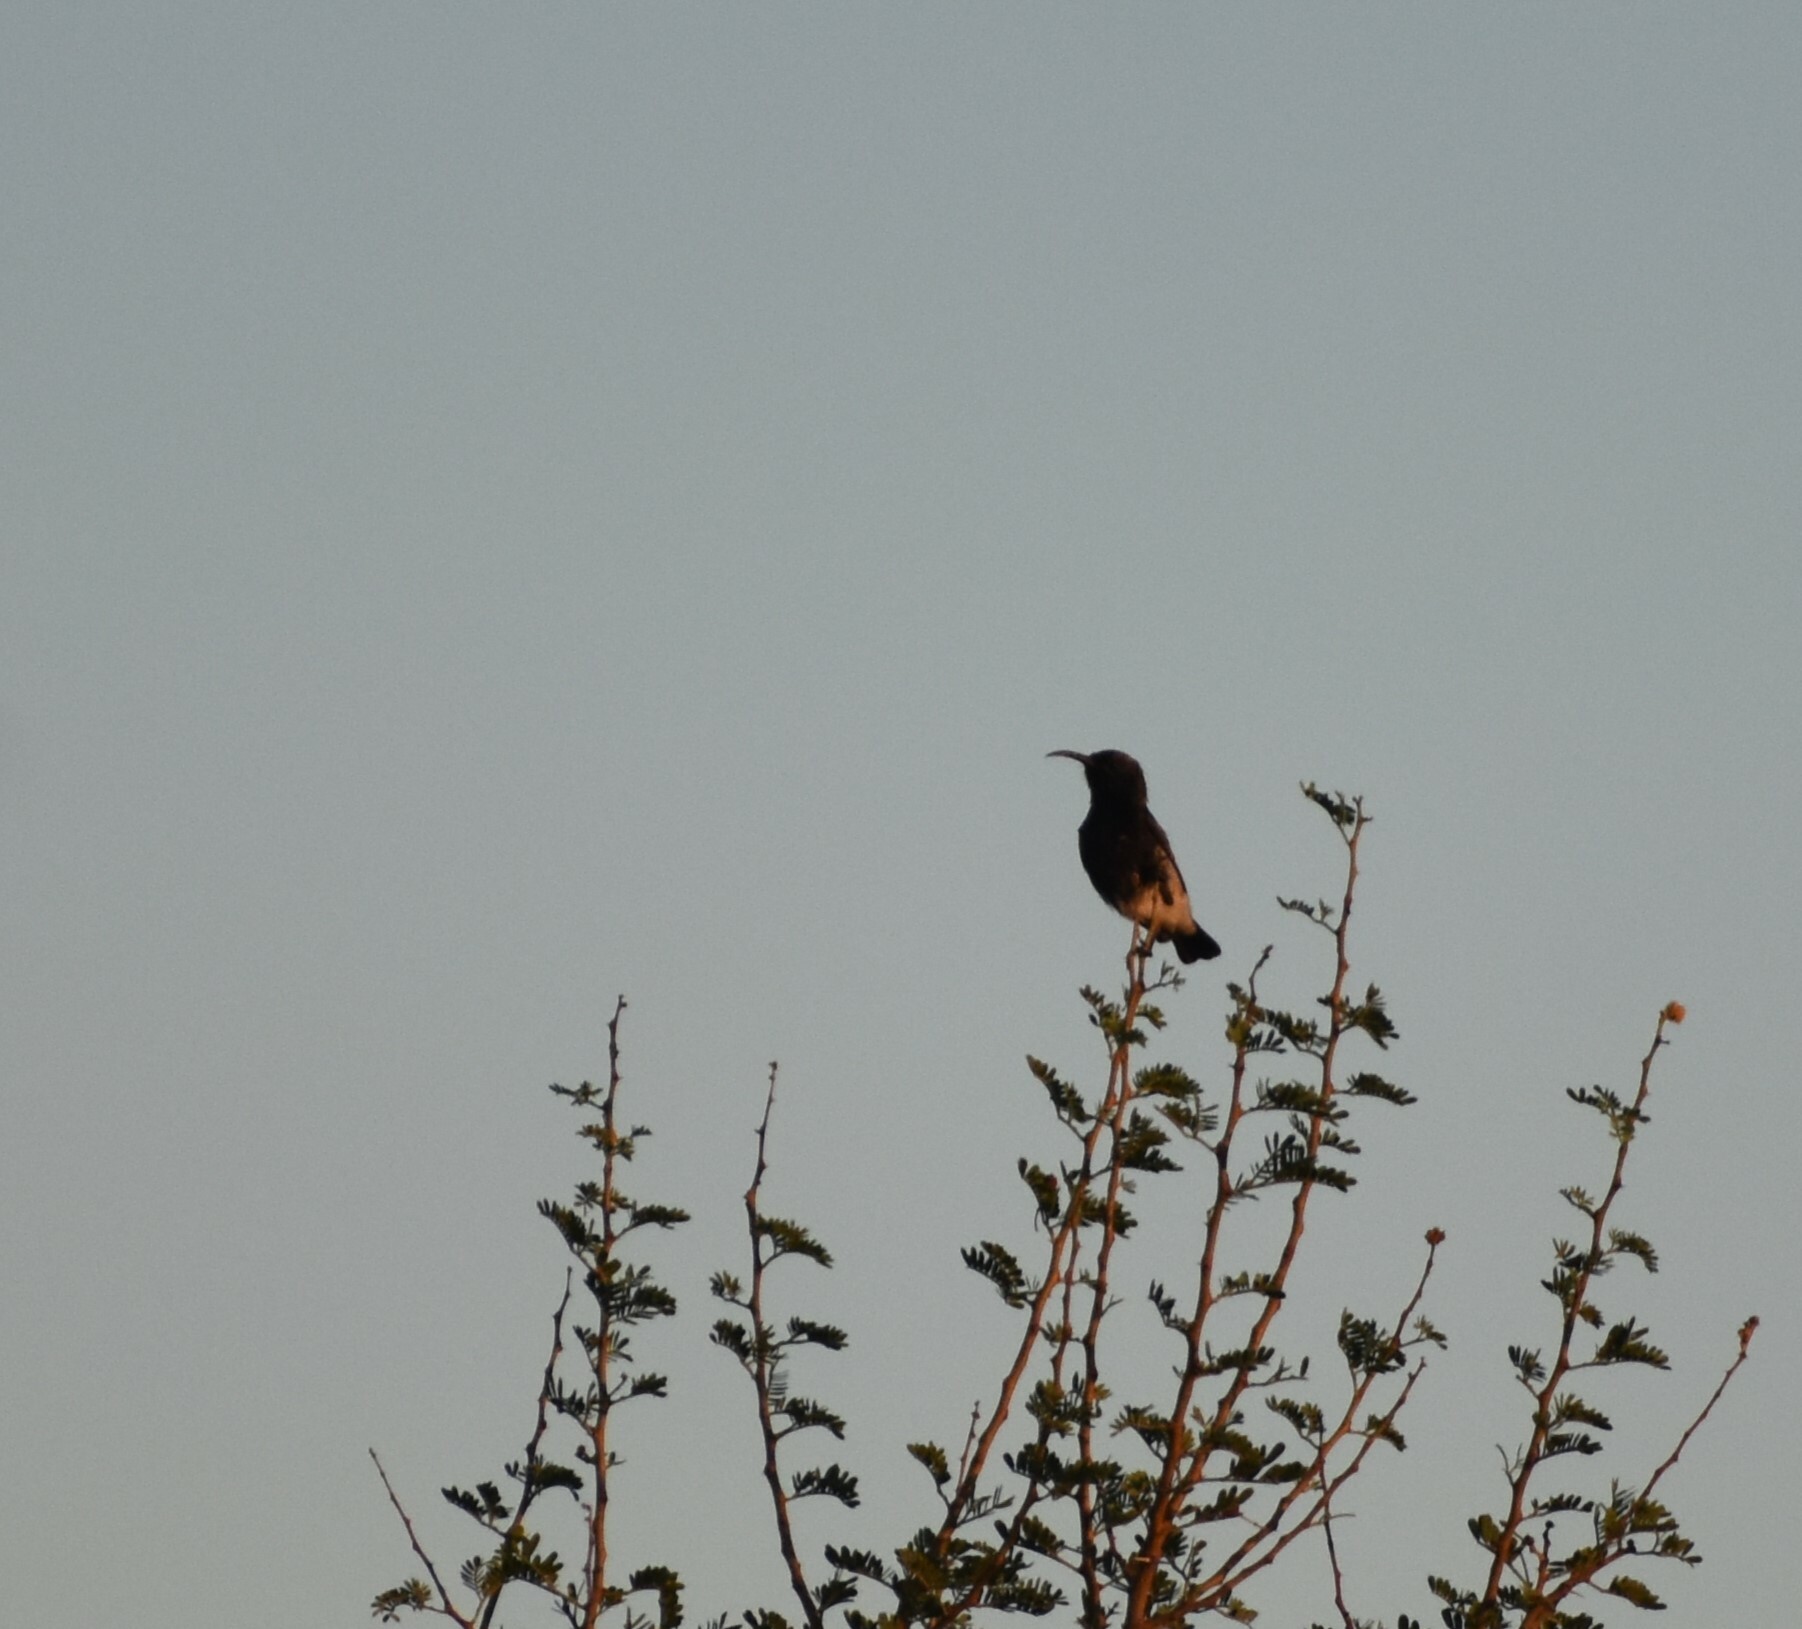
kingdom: Animalia
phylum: Chordata
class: Aves
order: Passeriformes
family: Nectariniidae
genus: Cinnyris
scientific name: Cinnyris fuscus
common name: Dusky sunbird
